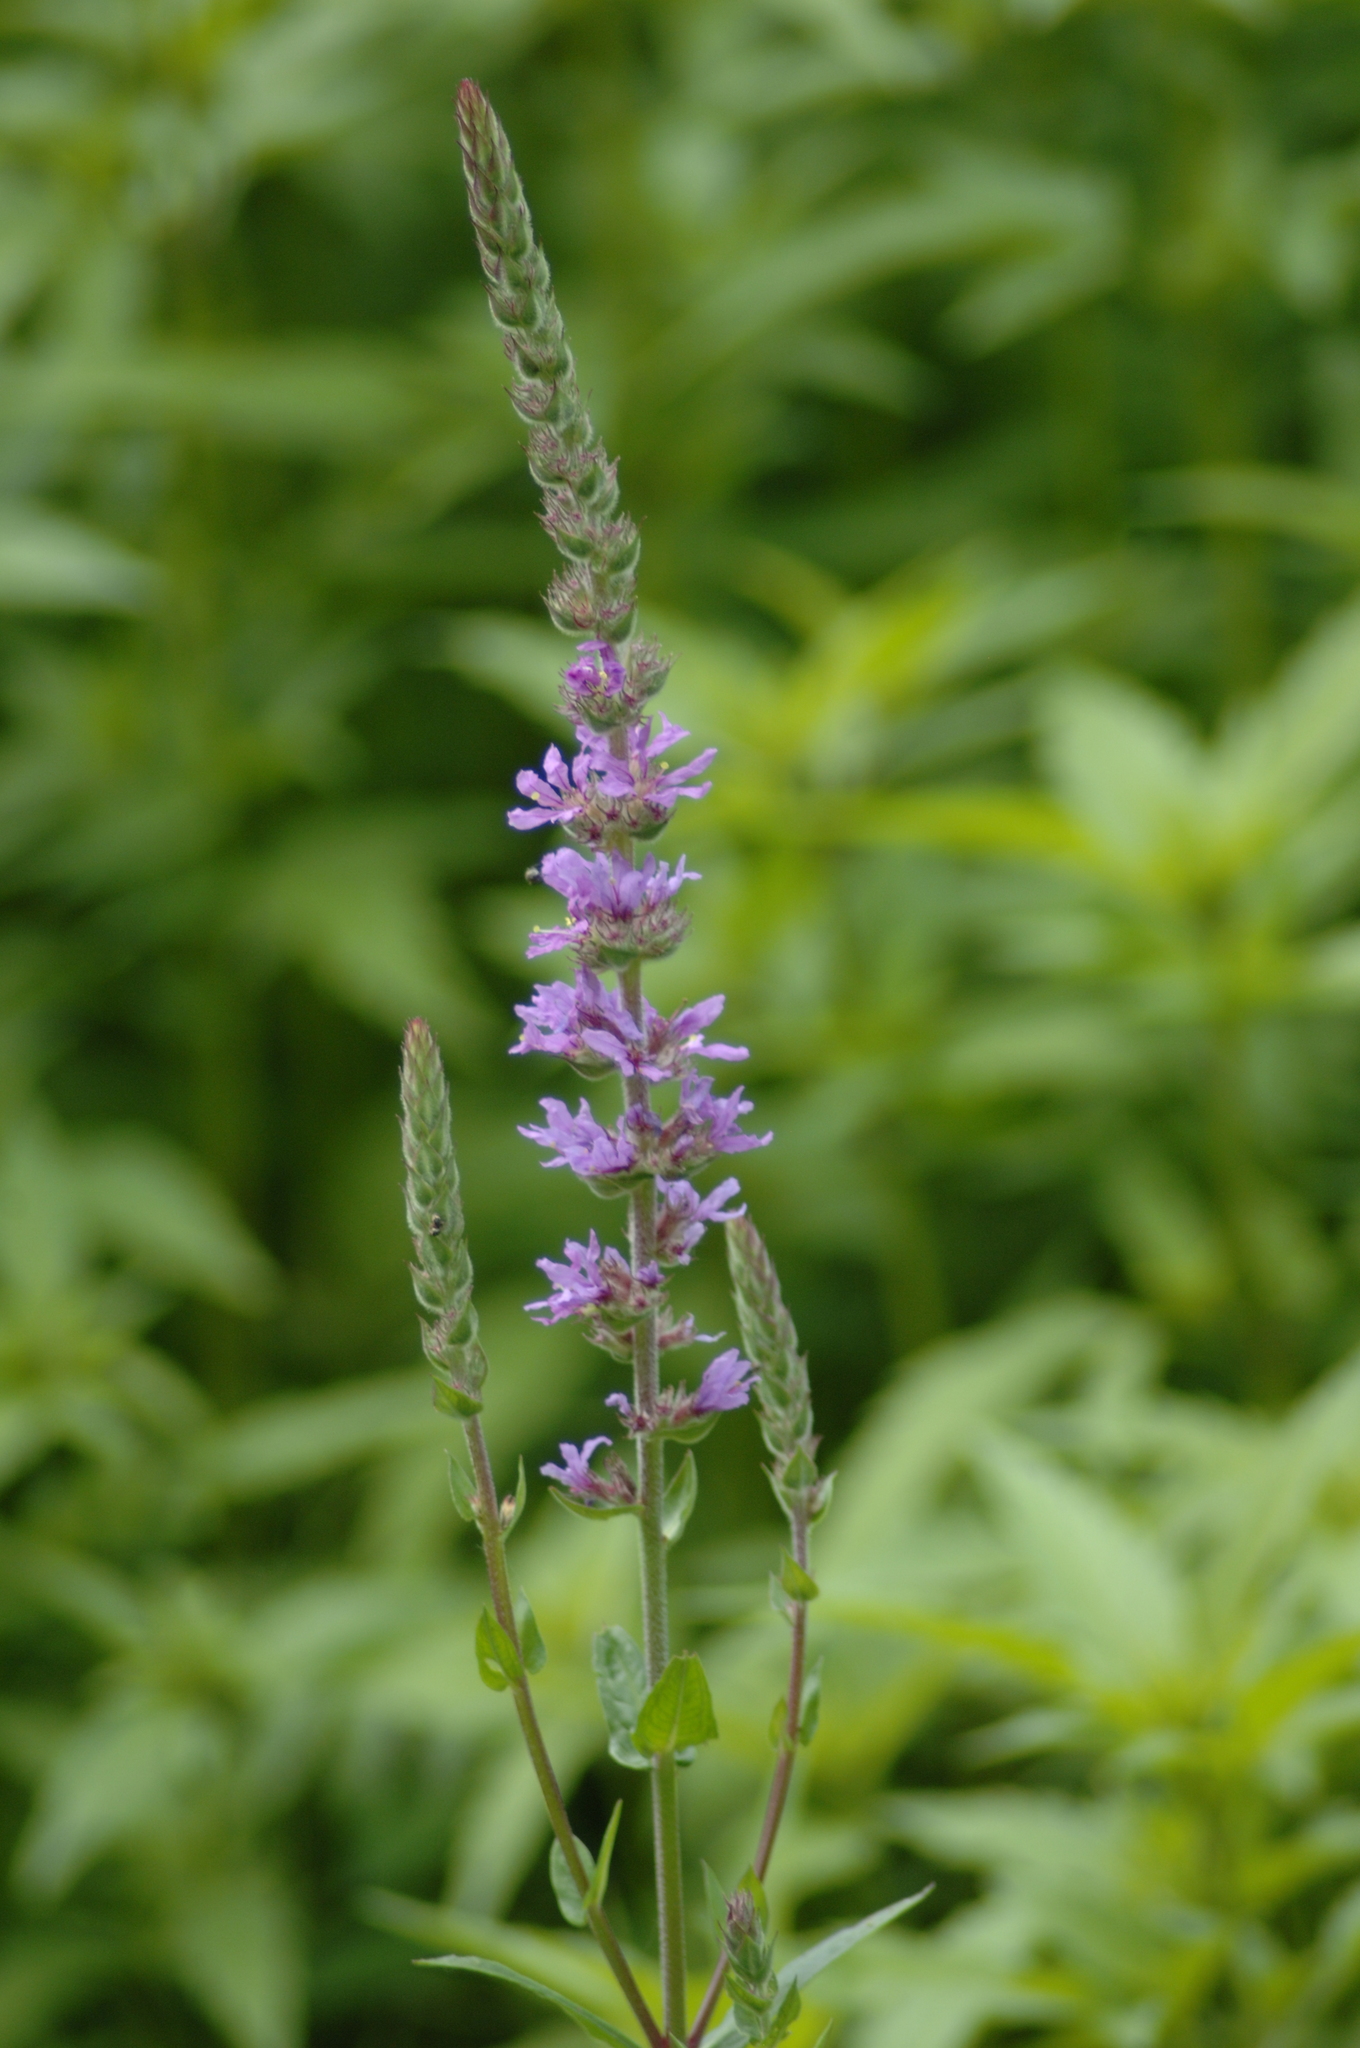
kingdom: Plantae
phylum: Tracheophyta
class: Magnoliopsida
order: Myrtales
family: Lythraceae
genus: Lythrum
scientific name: Lythrum salicaria
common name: Purple loosestrife
